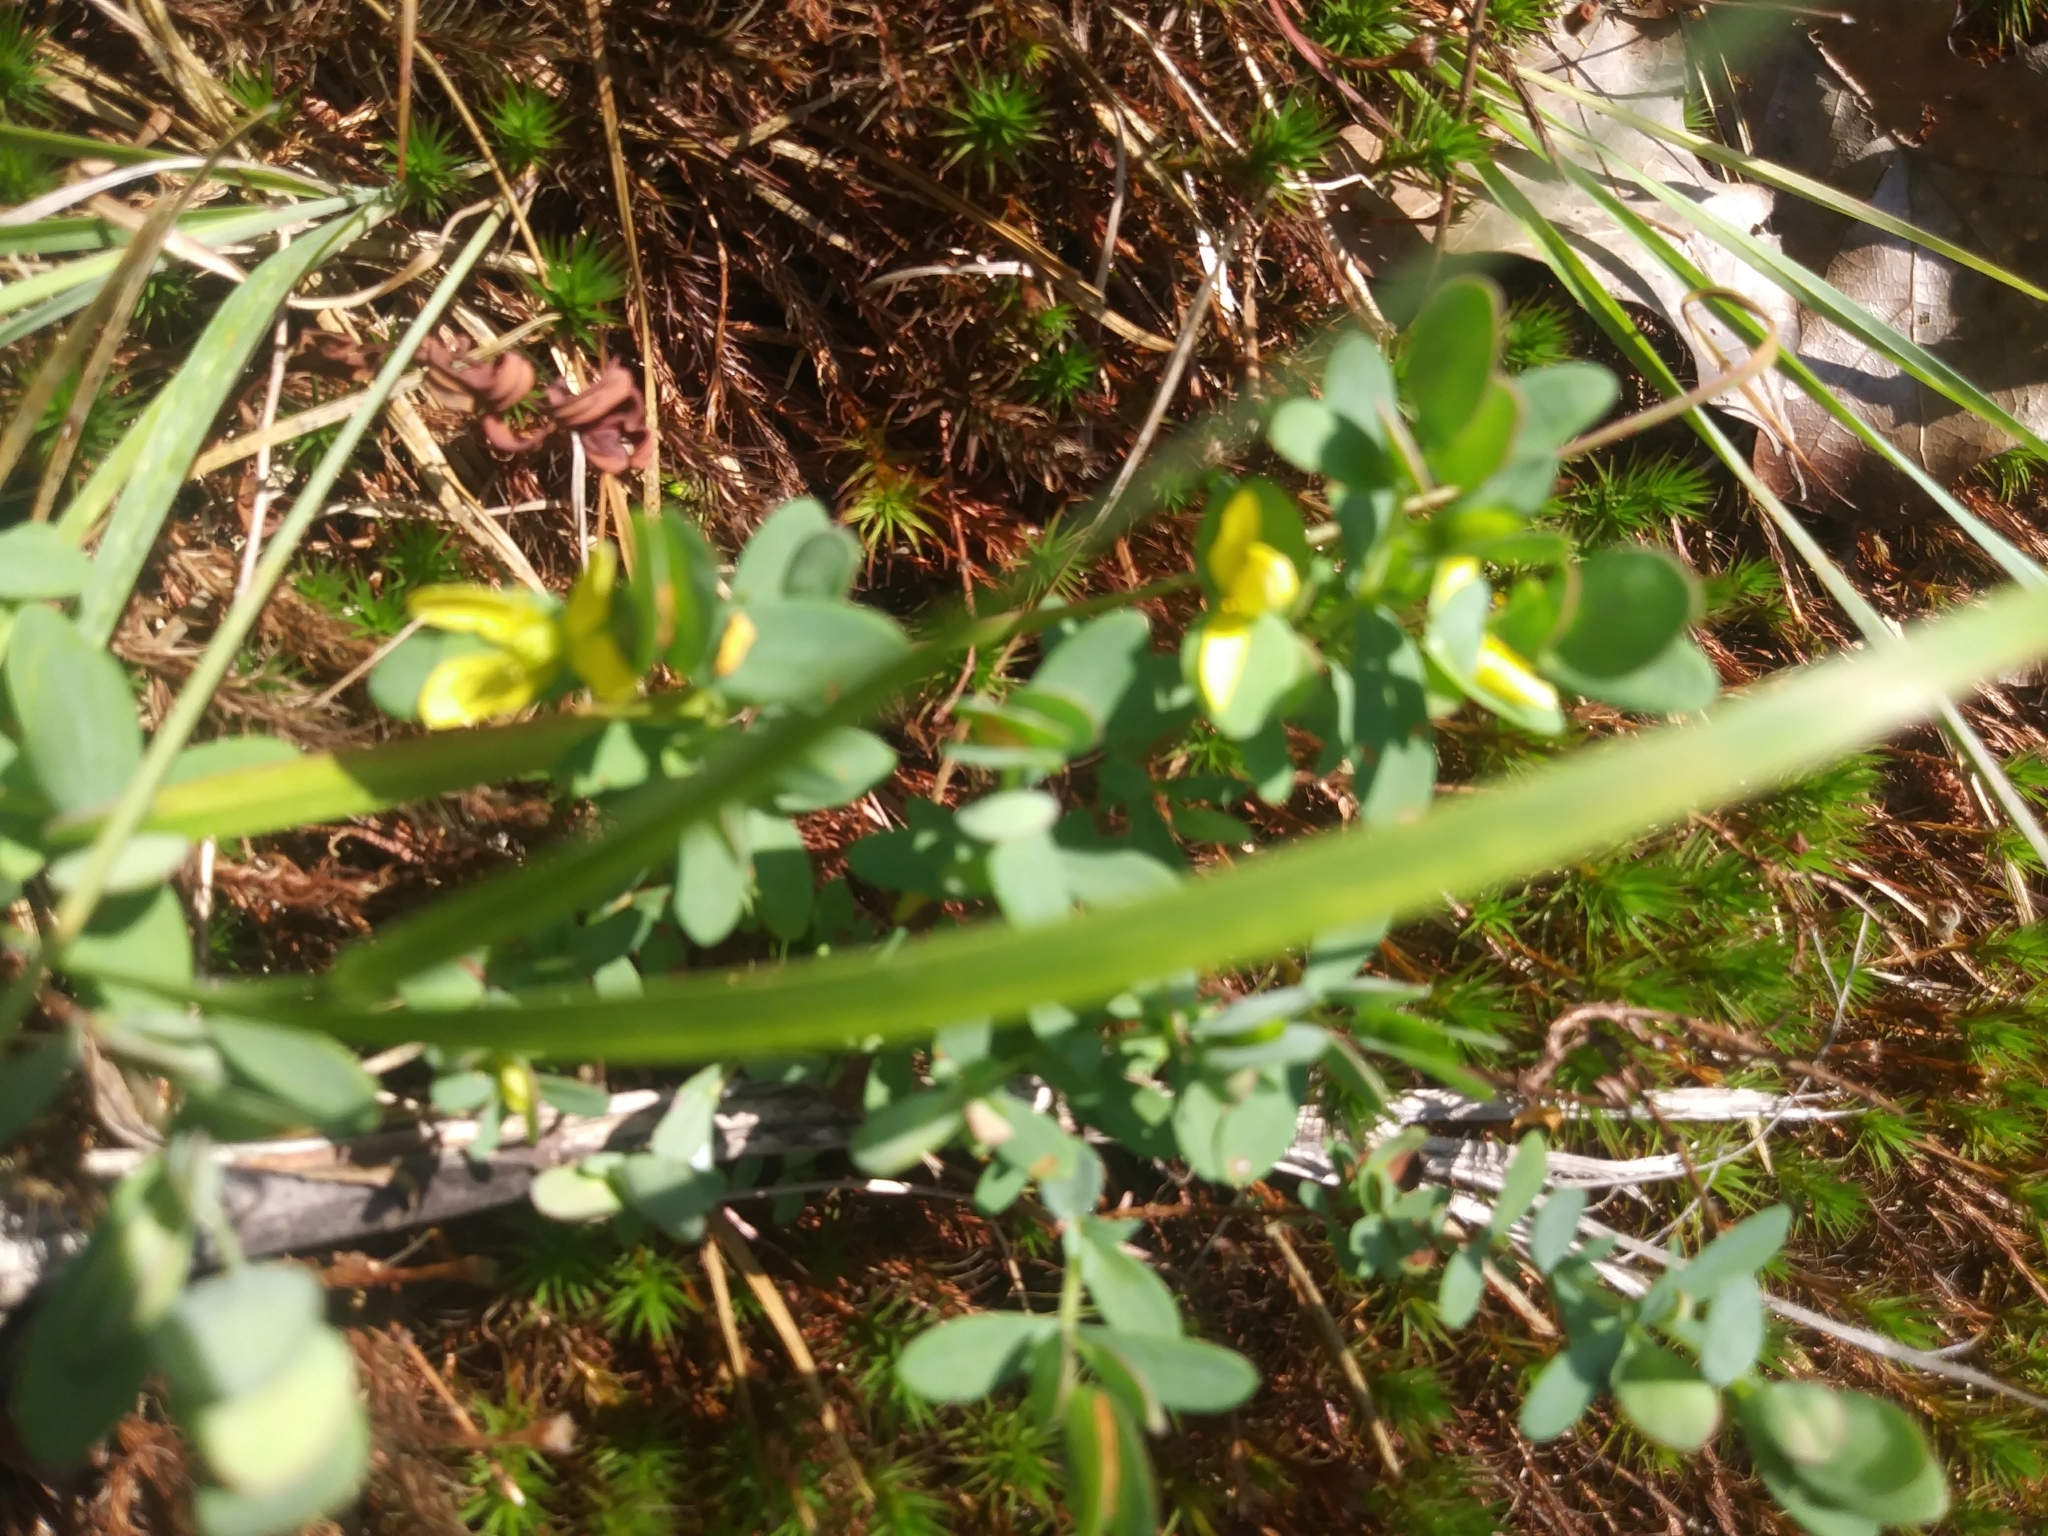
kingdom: Plantae
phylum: Tracheophyta
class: Magnoliopsida
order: Malpighiales
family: Hypericaceae
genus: Hypericum
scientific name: Hypericum hypericoides
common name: St. andrew's cross
